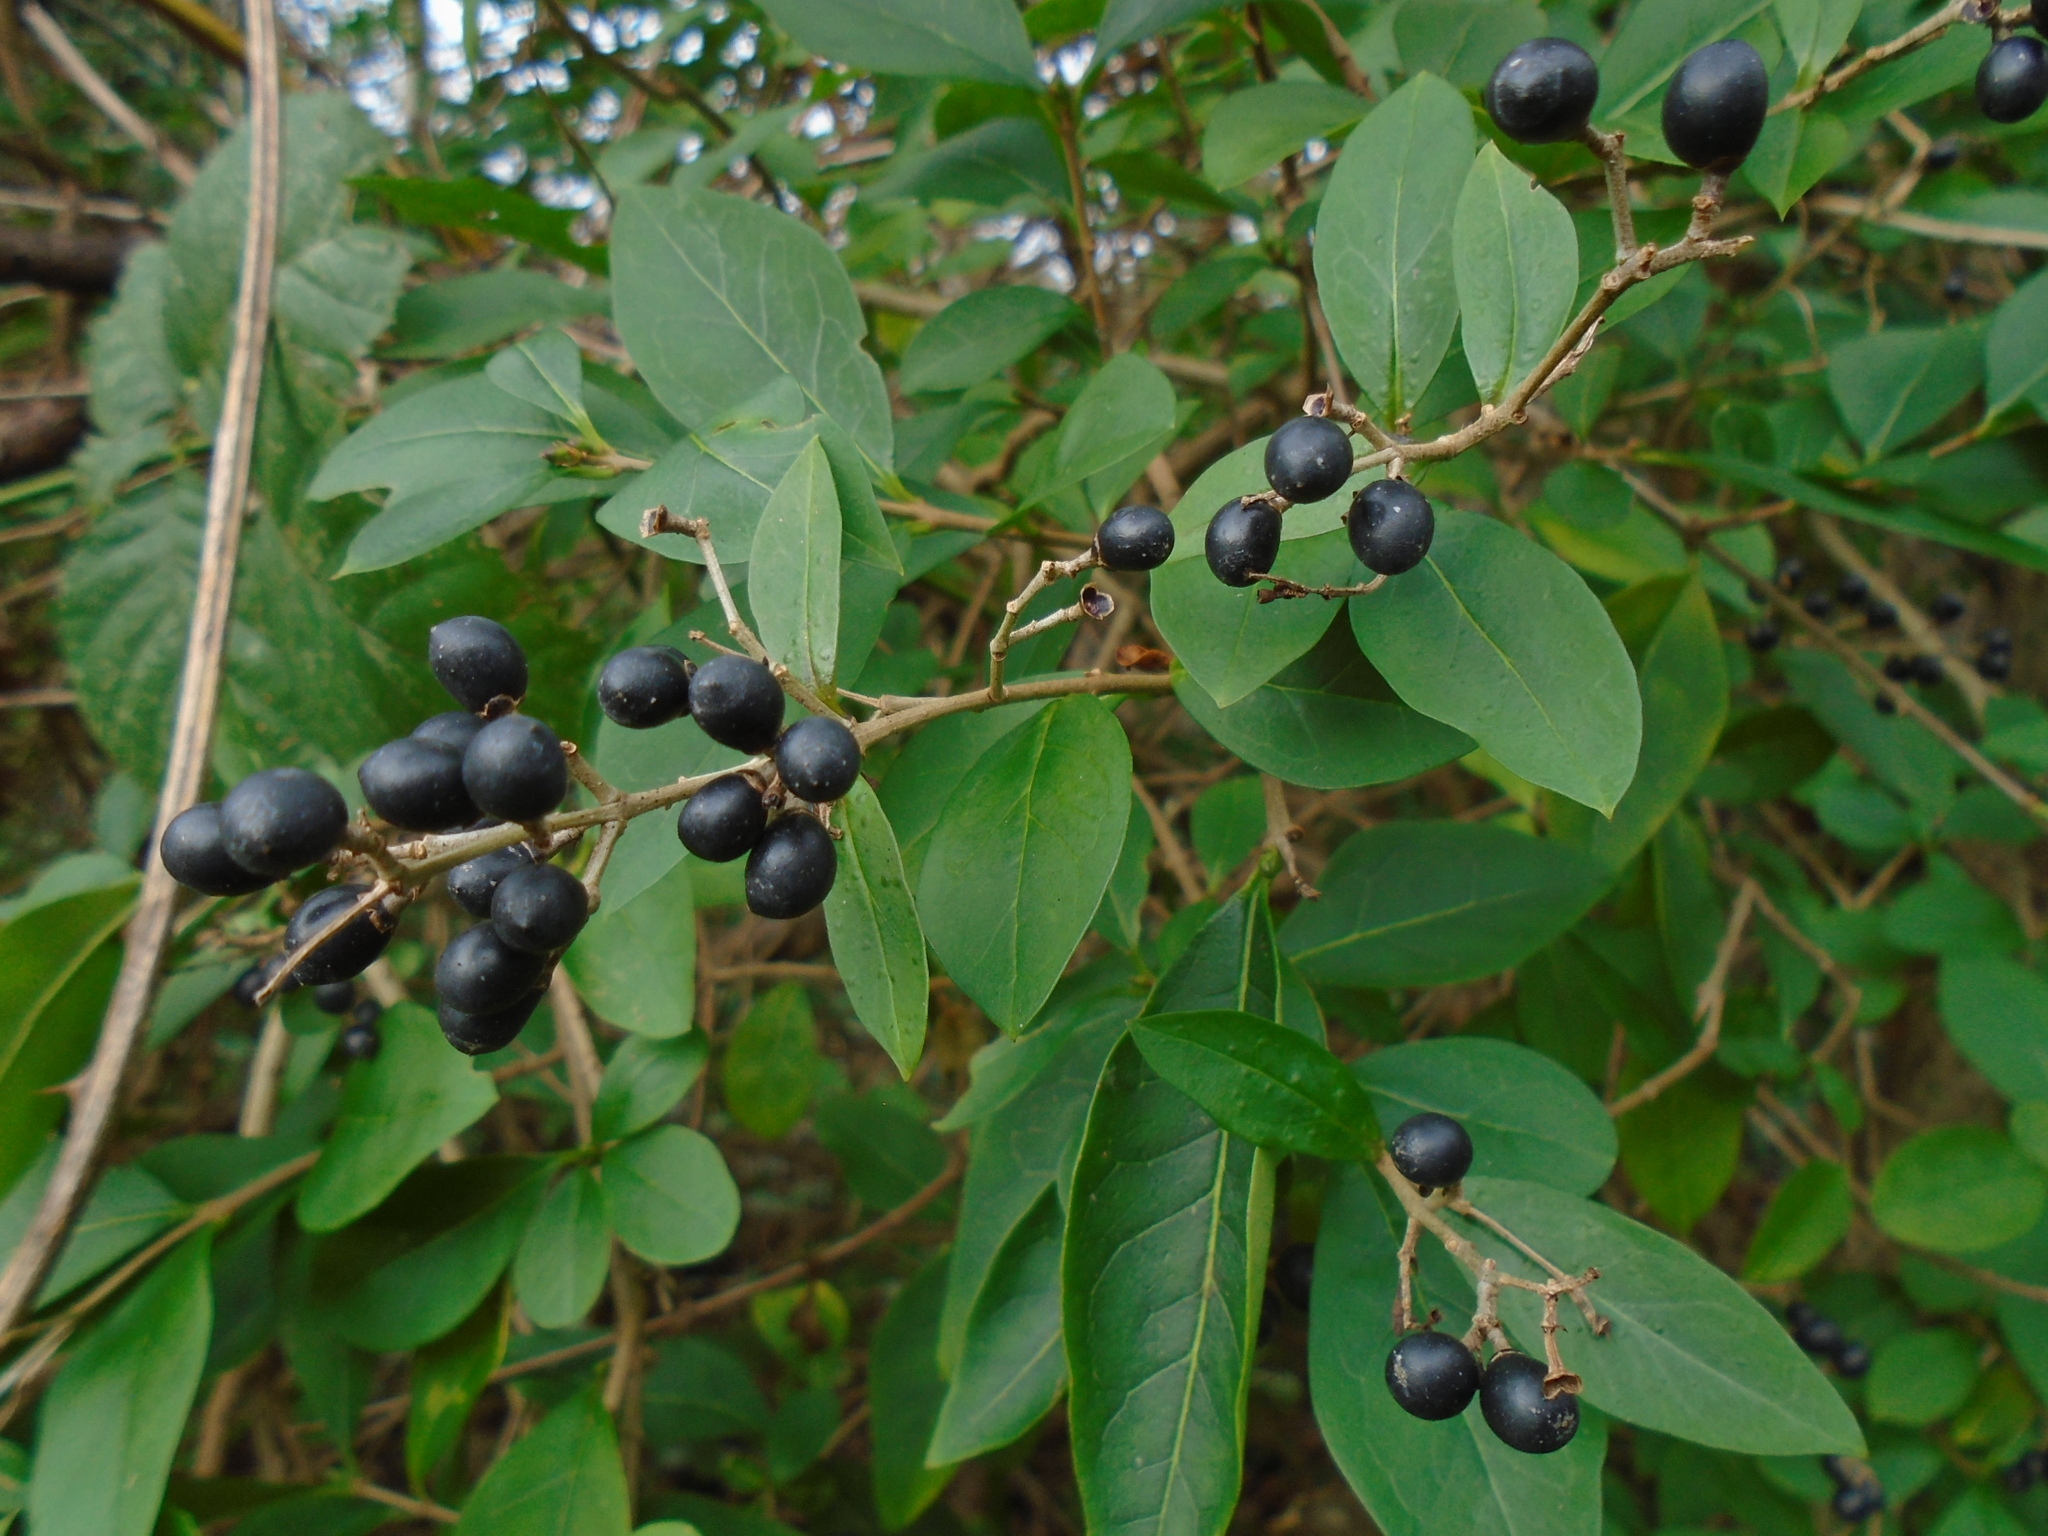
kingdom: Plantae
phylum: Tracheophyta
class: Magnoliopsida
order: Lamiales
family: Oleaceae
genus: Ligustrum
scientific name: Ligustrum ovalifolium
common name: California privet
